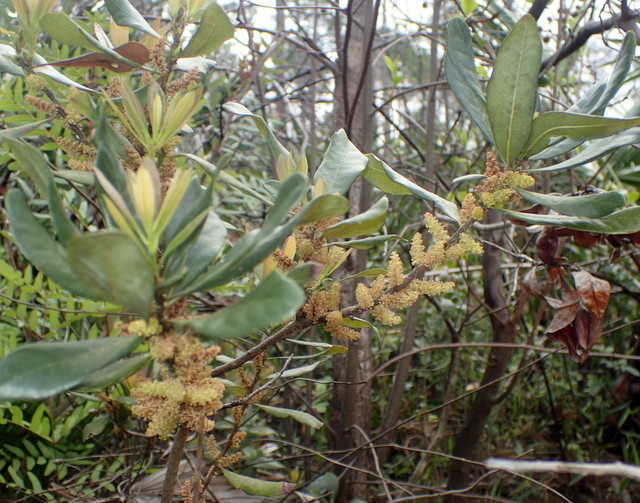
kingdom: Plantae
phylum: Tracheophyta
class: Magnoliopsida
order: Fagales
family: Myricaceae
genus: Morella
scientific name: Morella caroliniensis
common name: Evergreen bayberry
